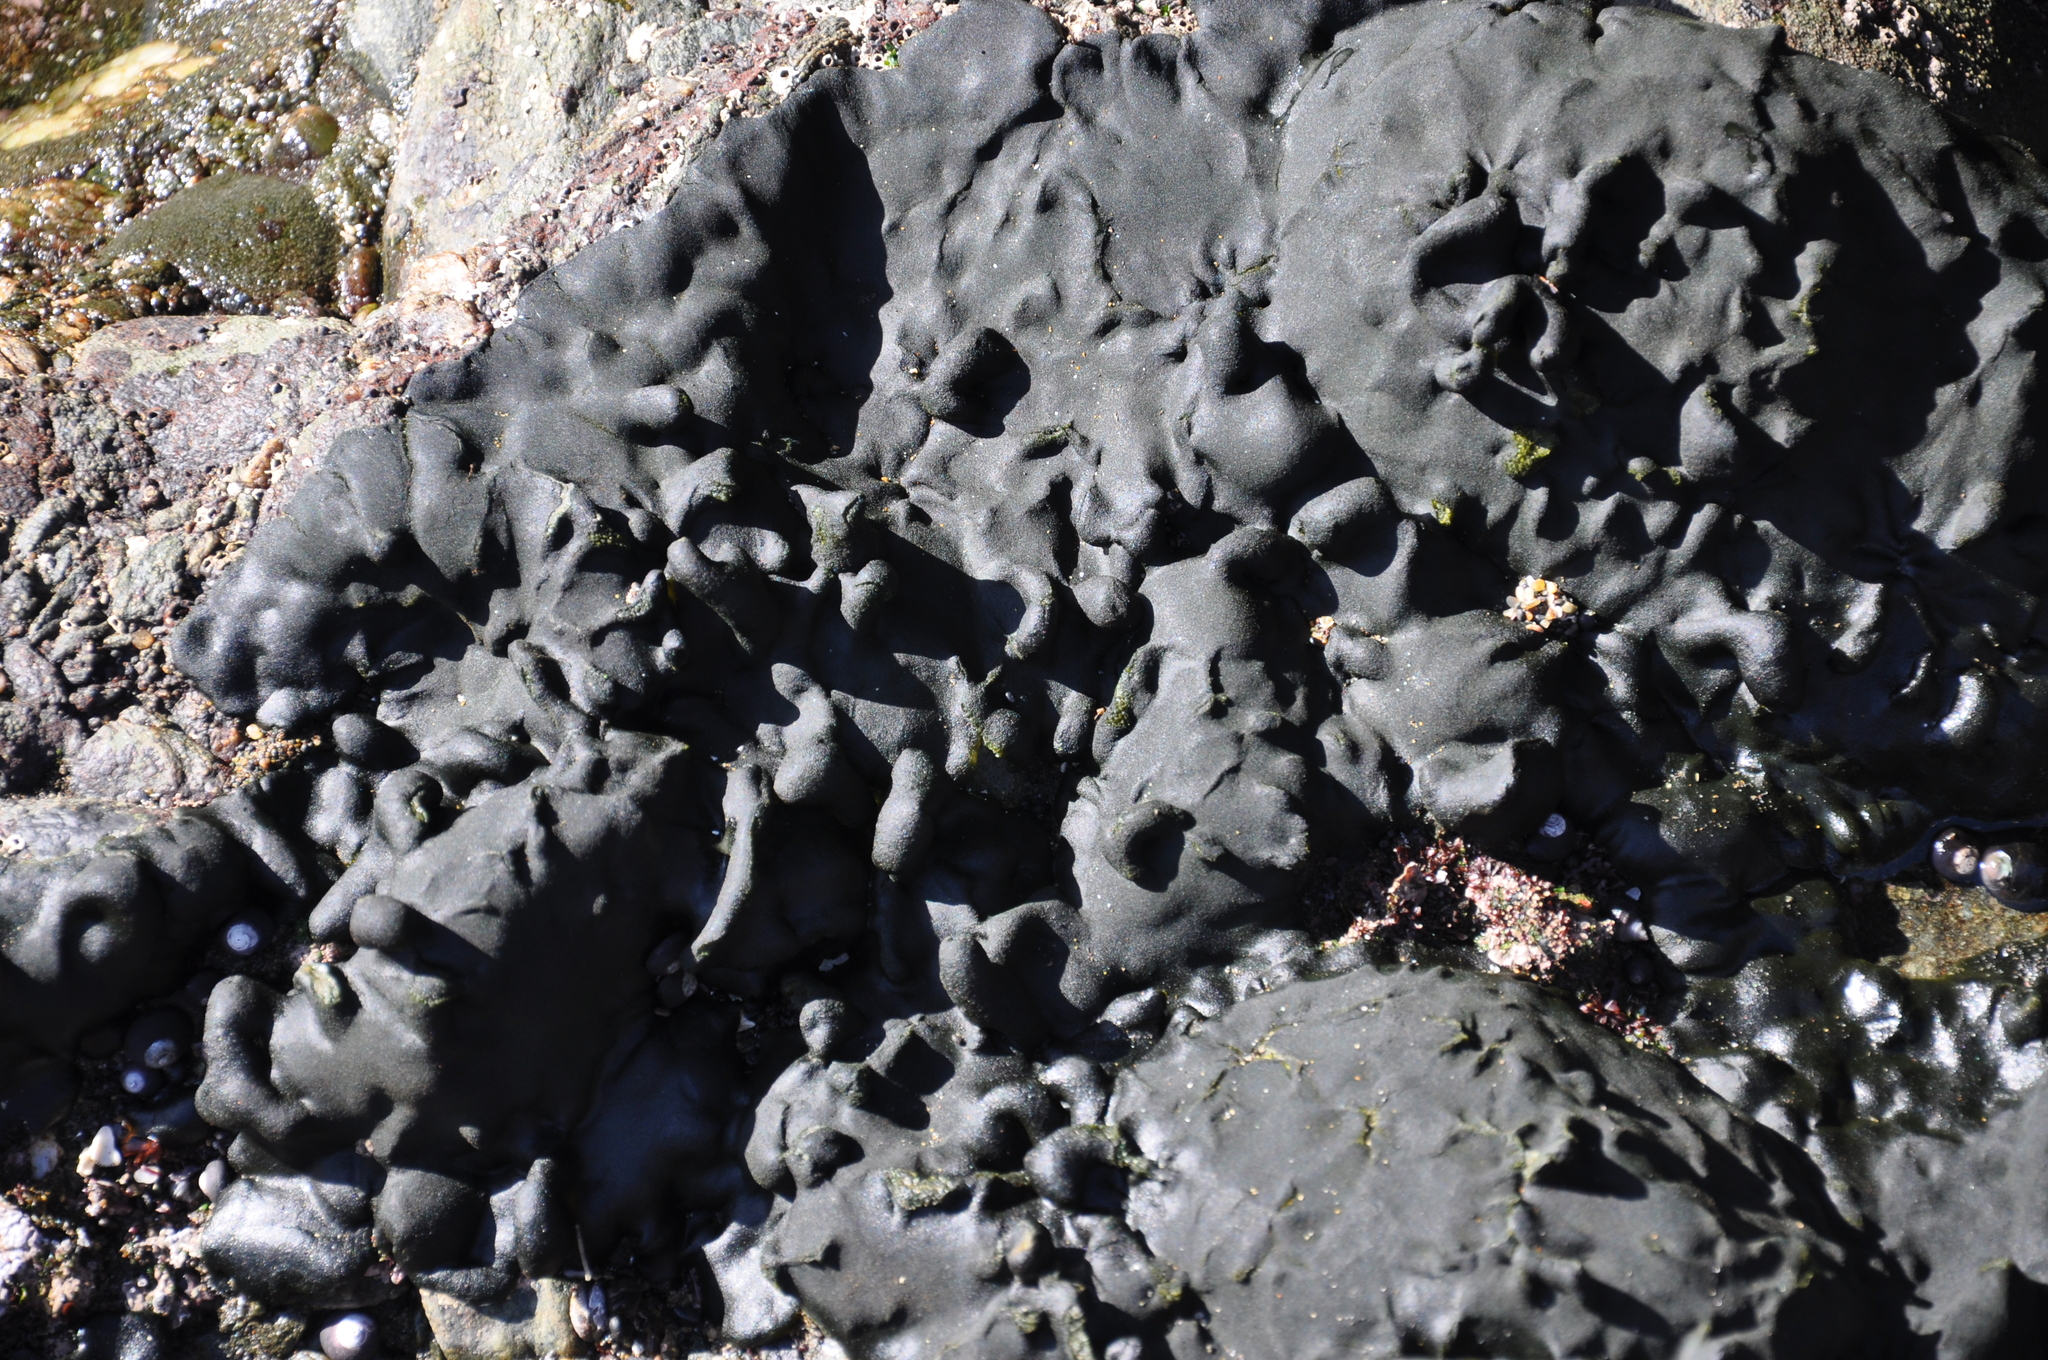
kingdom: Plantae
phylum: Chlorophyta
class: Ulvophyceae
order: Bryopsidales
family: Codiaceae
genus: Codium
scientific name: Codium
